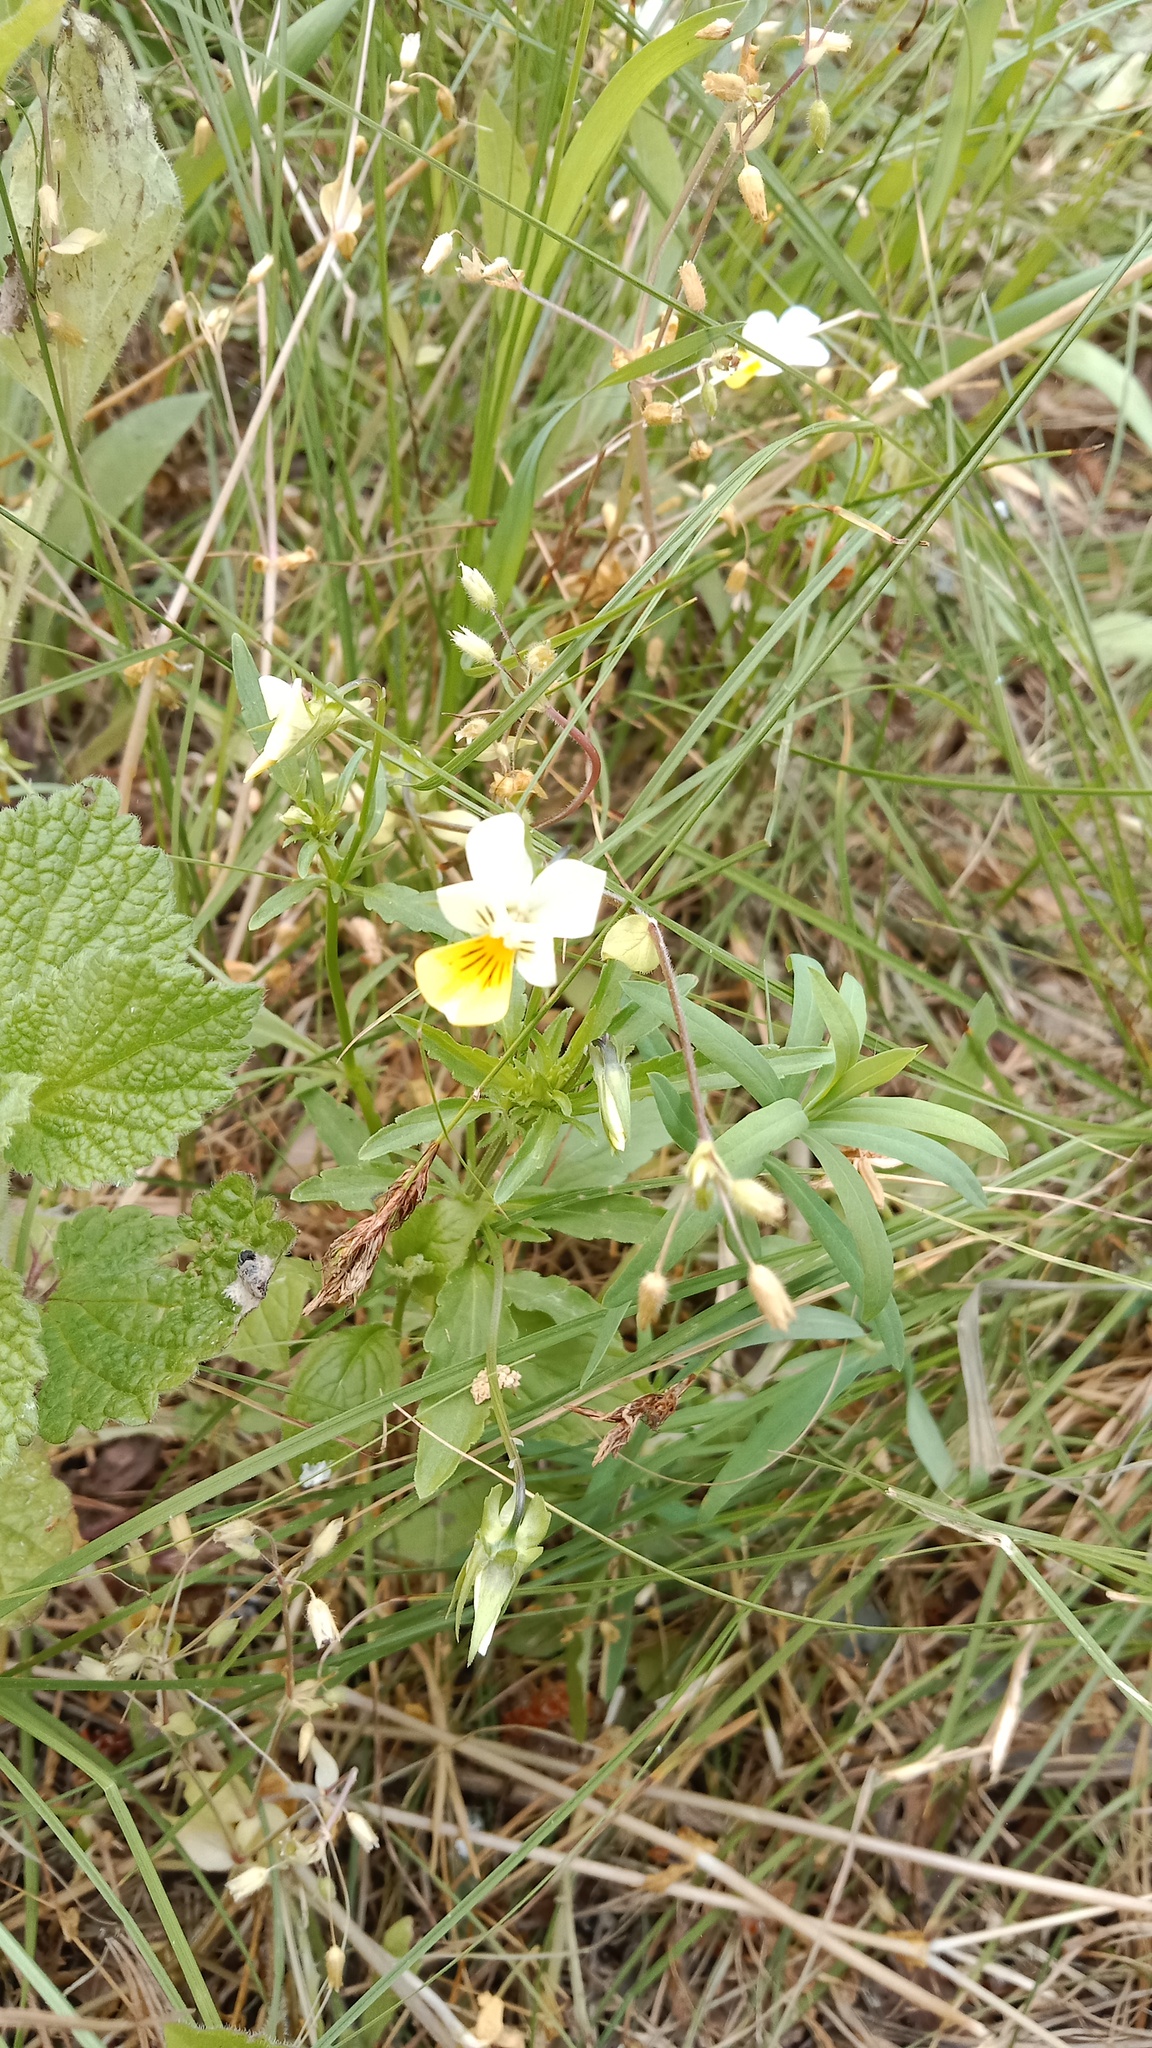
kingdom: Plantae
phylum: Tracheophyta
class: Magnoliopsida
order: Malpighiales
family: Violaceae
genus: Viola
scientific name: Viola arvensis
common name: Field pansy
